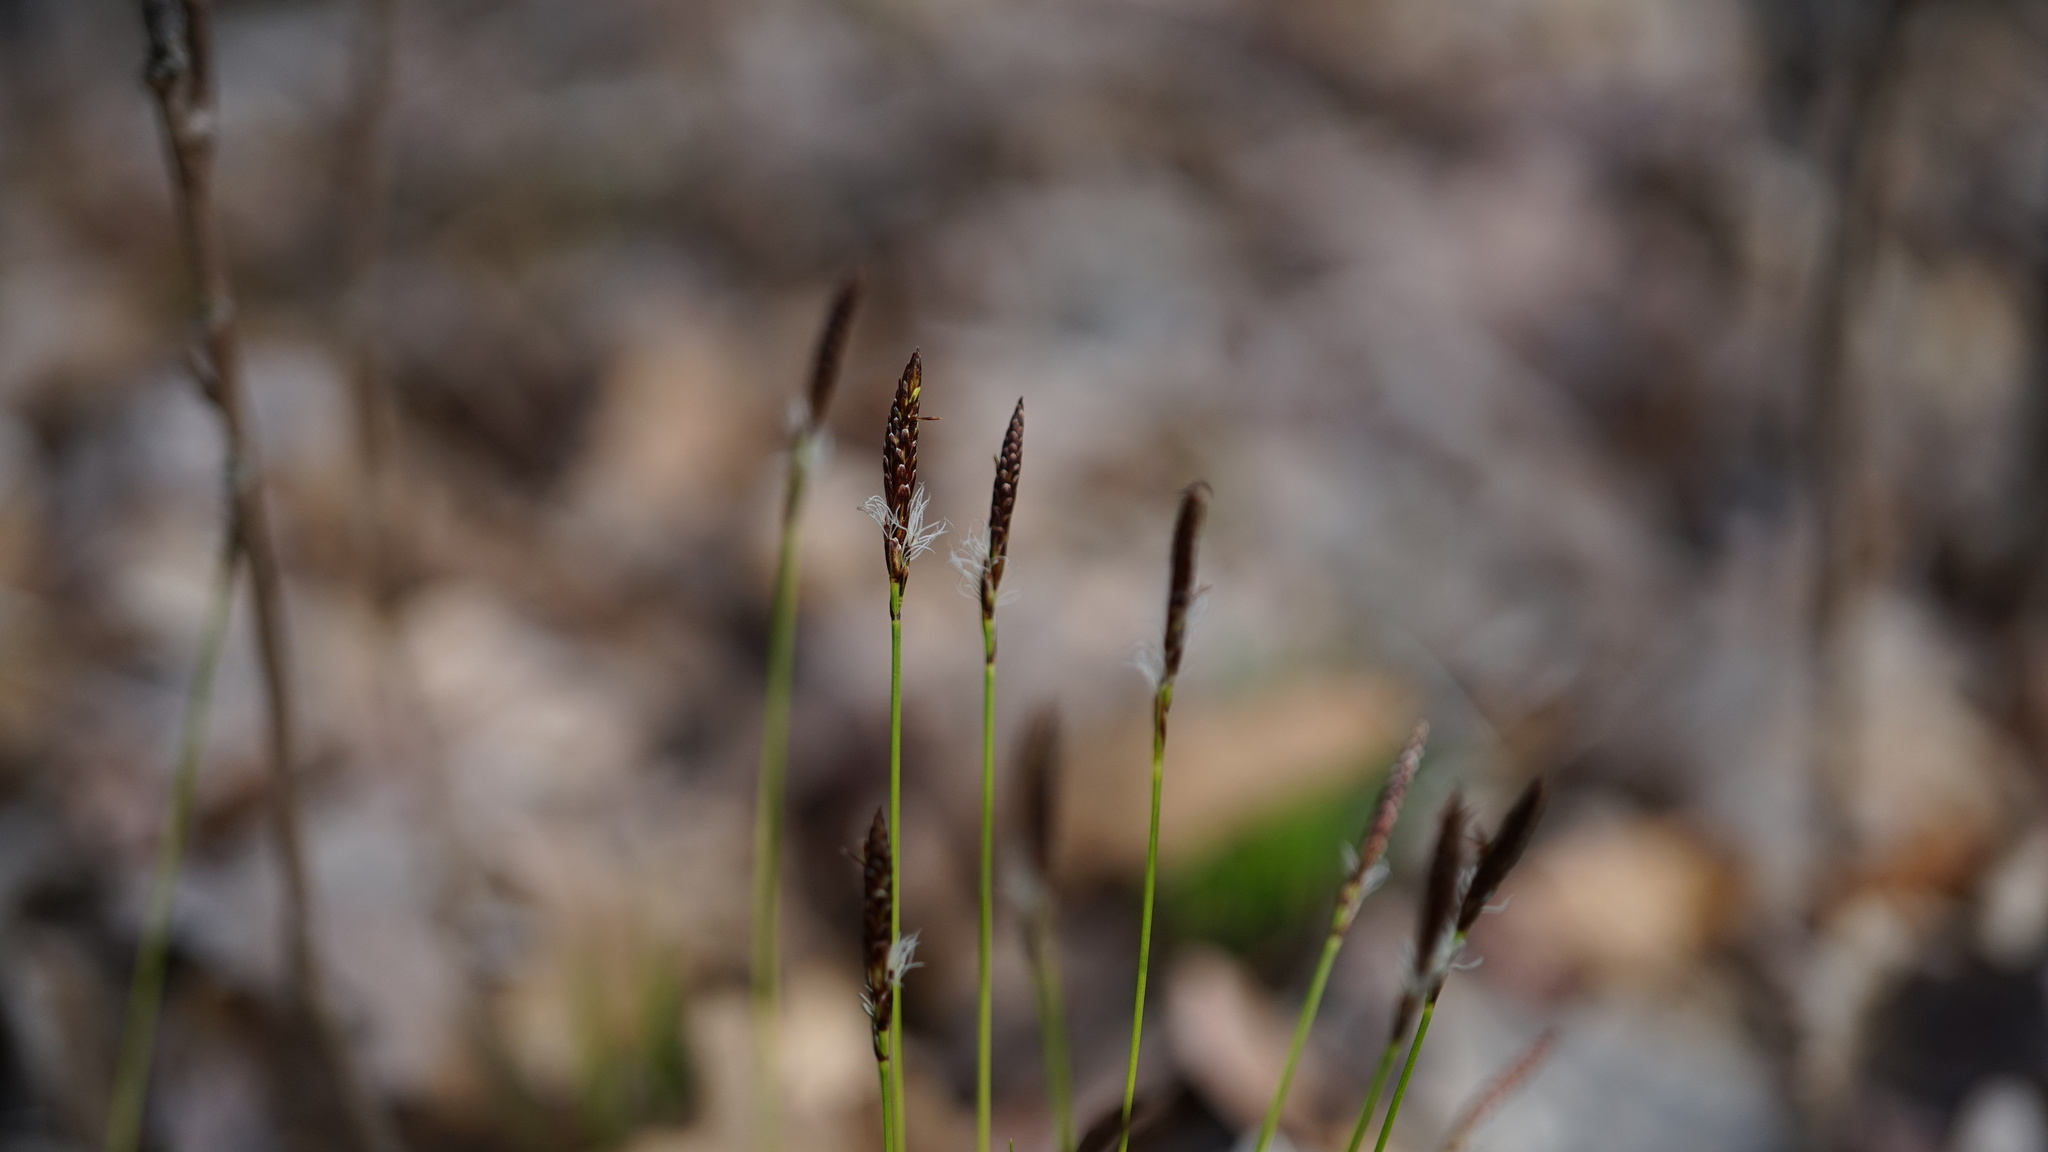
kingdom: Plantae
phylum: Tracheophyta
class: Liliopsida
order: Poales
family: Cyperaceae
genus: Carex
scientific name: Carex pensylvanica
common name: Common oak sedge
